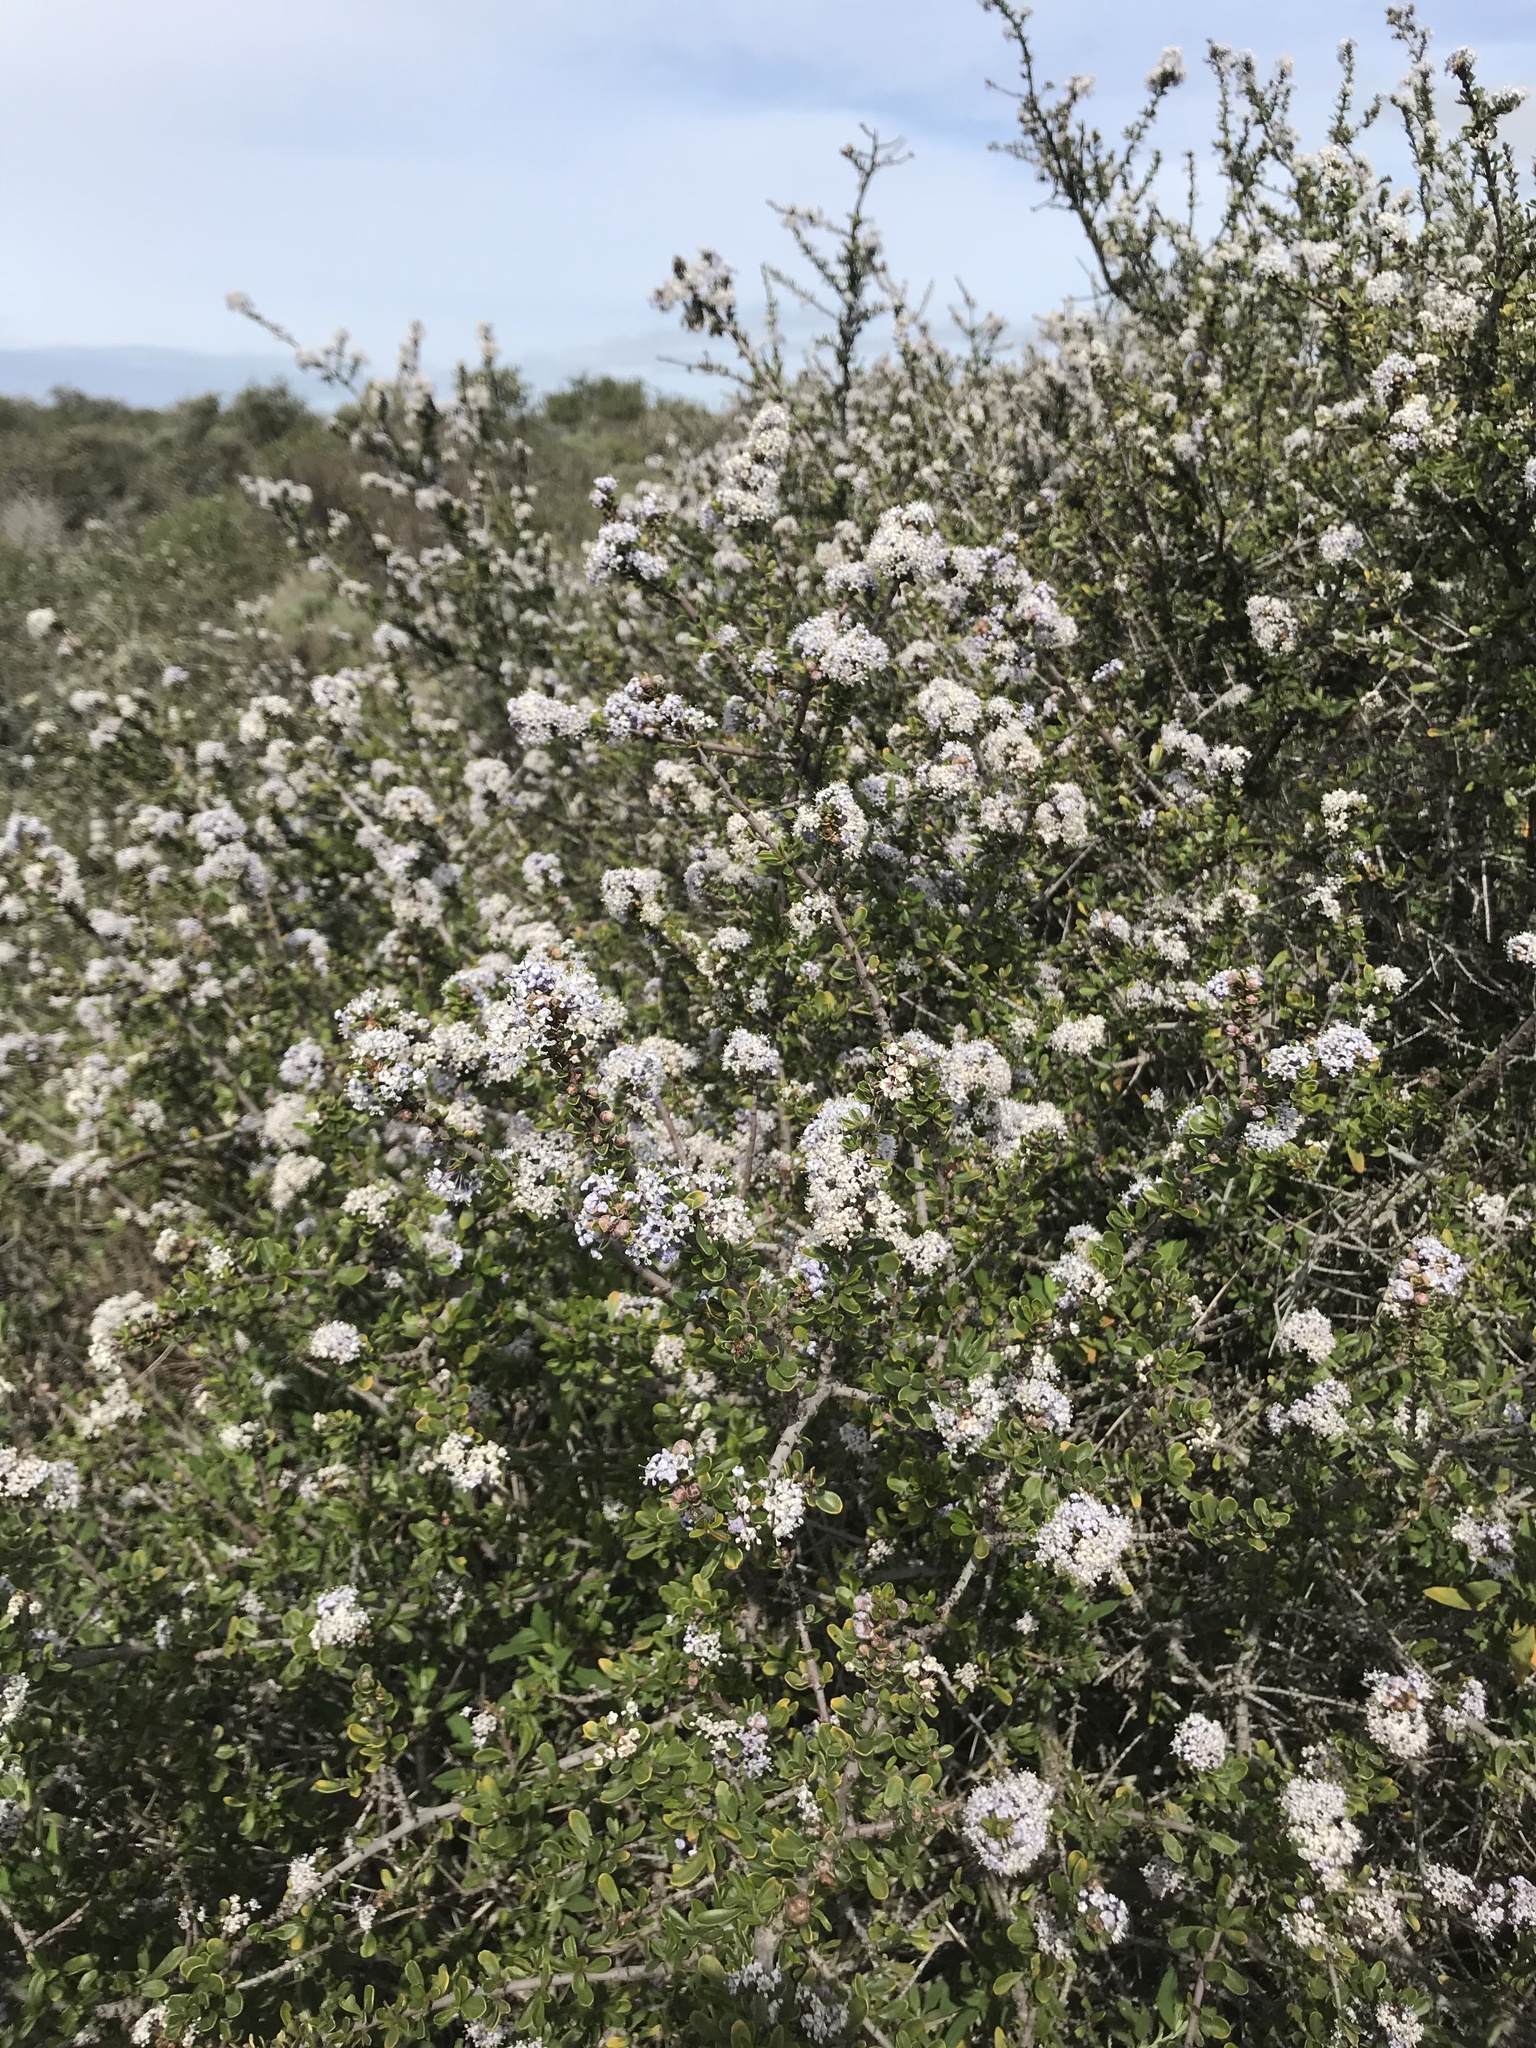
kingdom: Plantae
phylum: Tracheophyta
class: Magnoliopsida
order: Rosales
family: Rhamnaceae
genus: Ceanothus
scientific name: Ceanothus cuneatus
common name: Cuneate ceanothus
